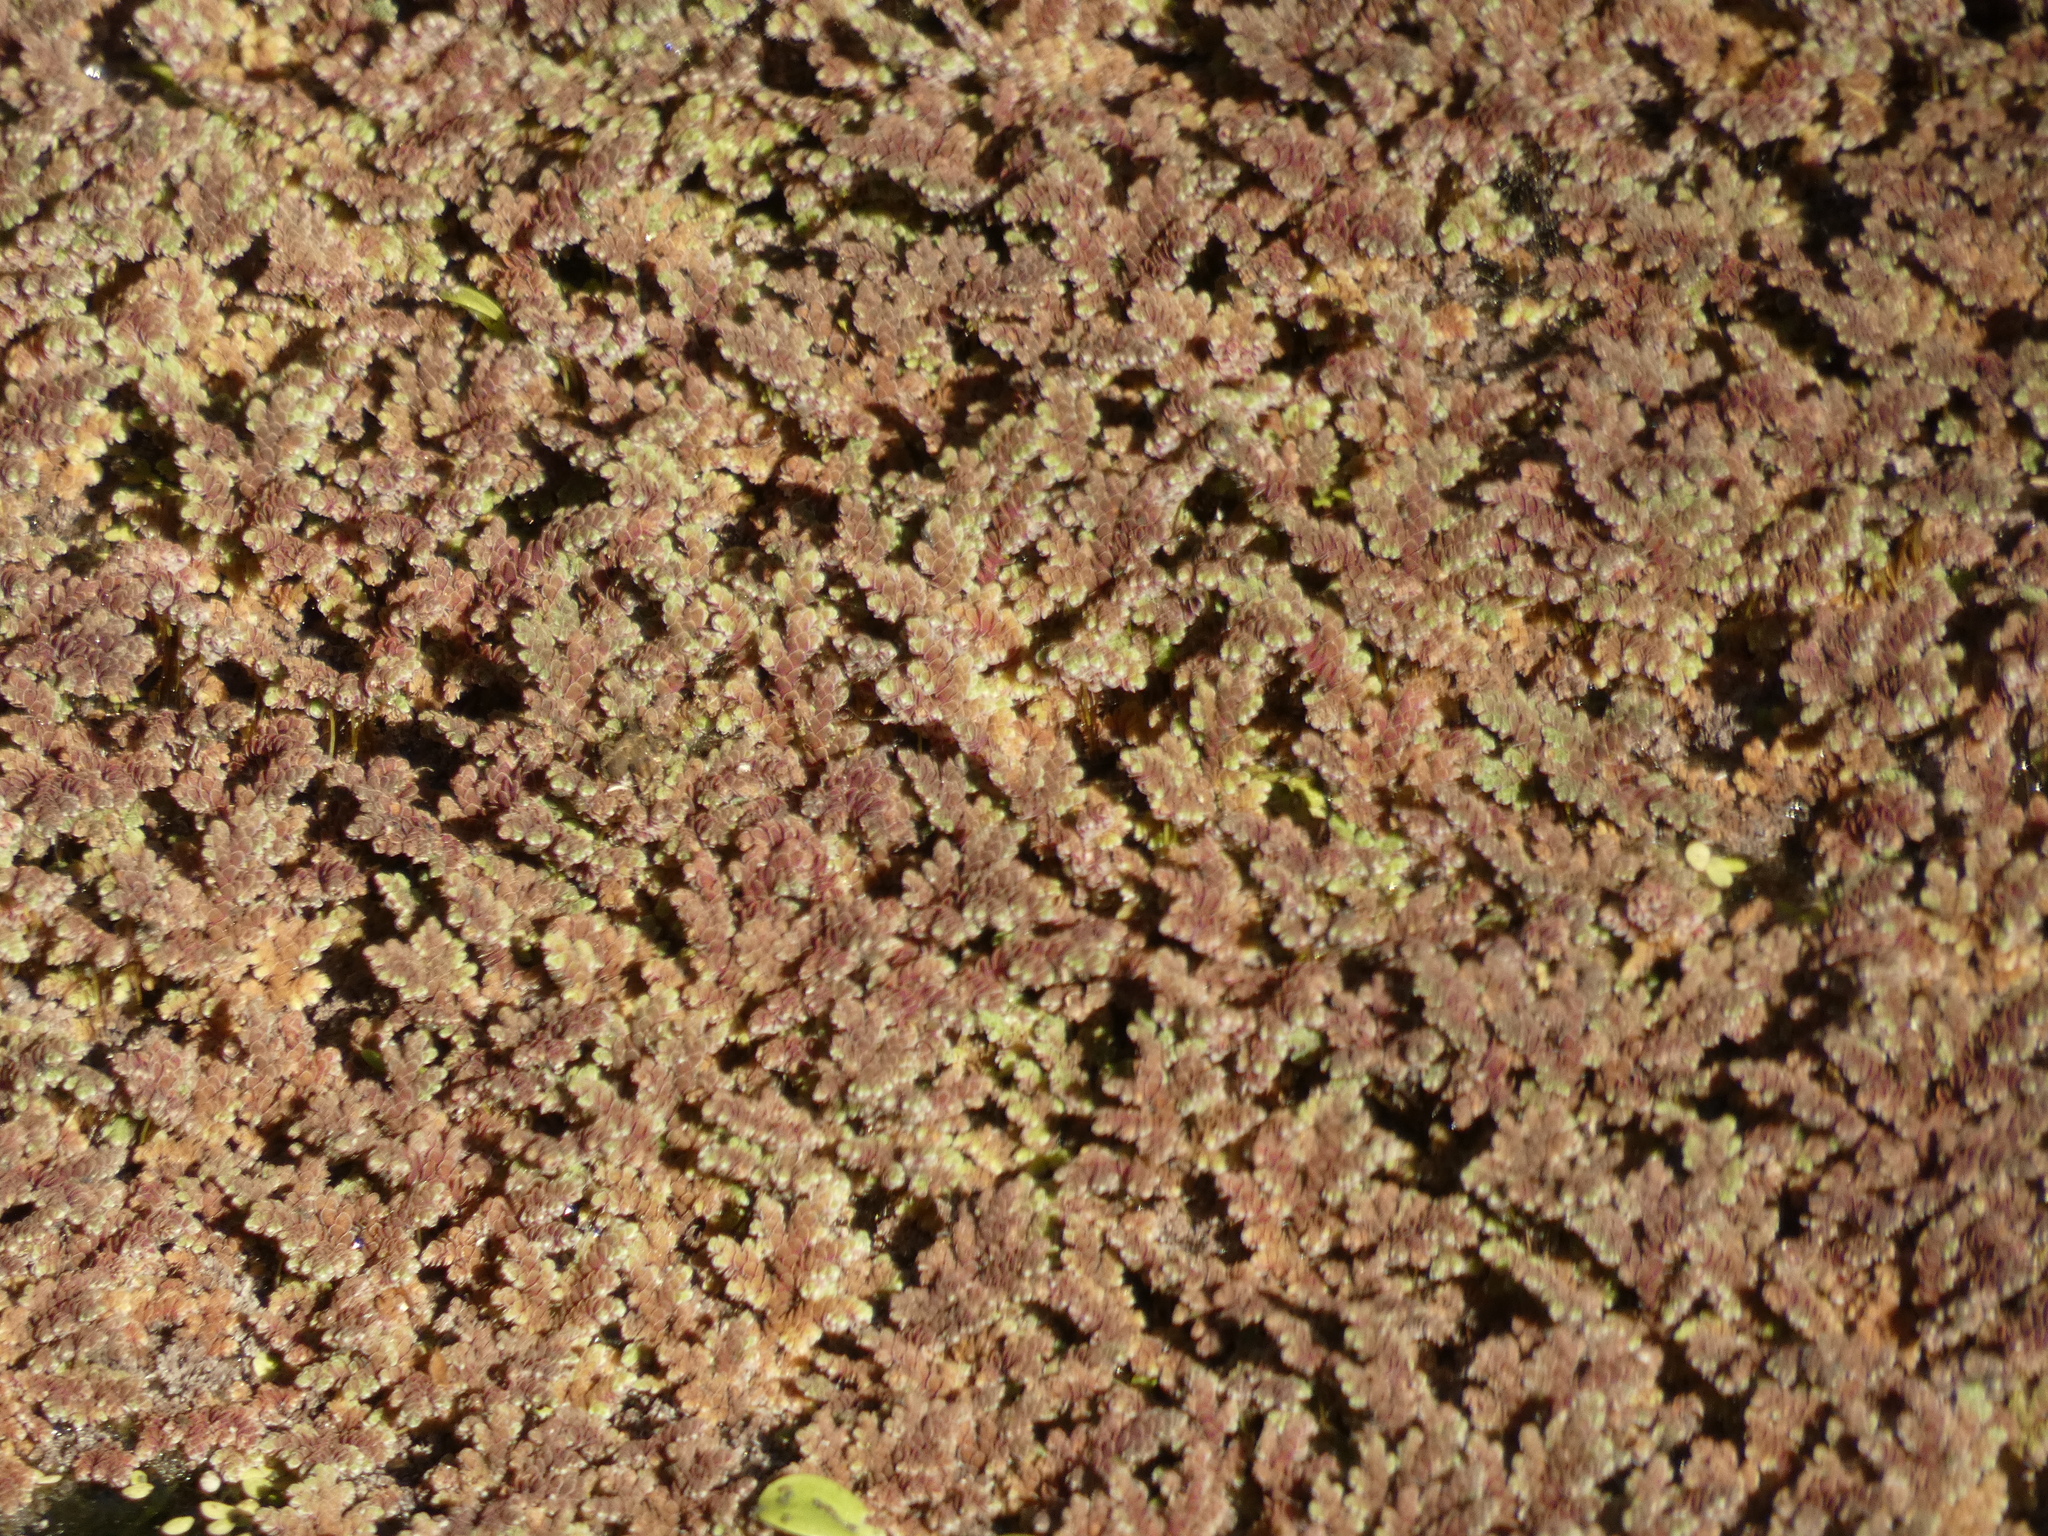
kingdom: Plantae
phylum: Tracheophyta
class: Polypodiopsida
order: Salviniales
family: Salviniaceae
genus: Azolla
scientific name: Azolla filiculoides
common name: Water fern
